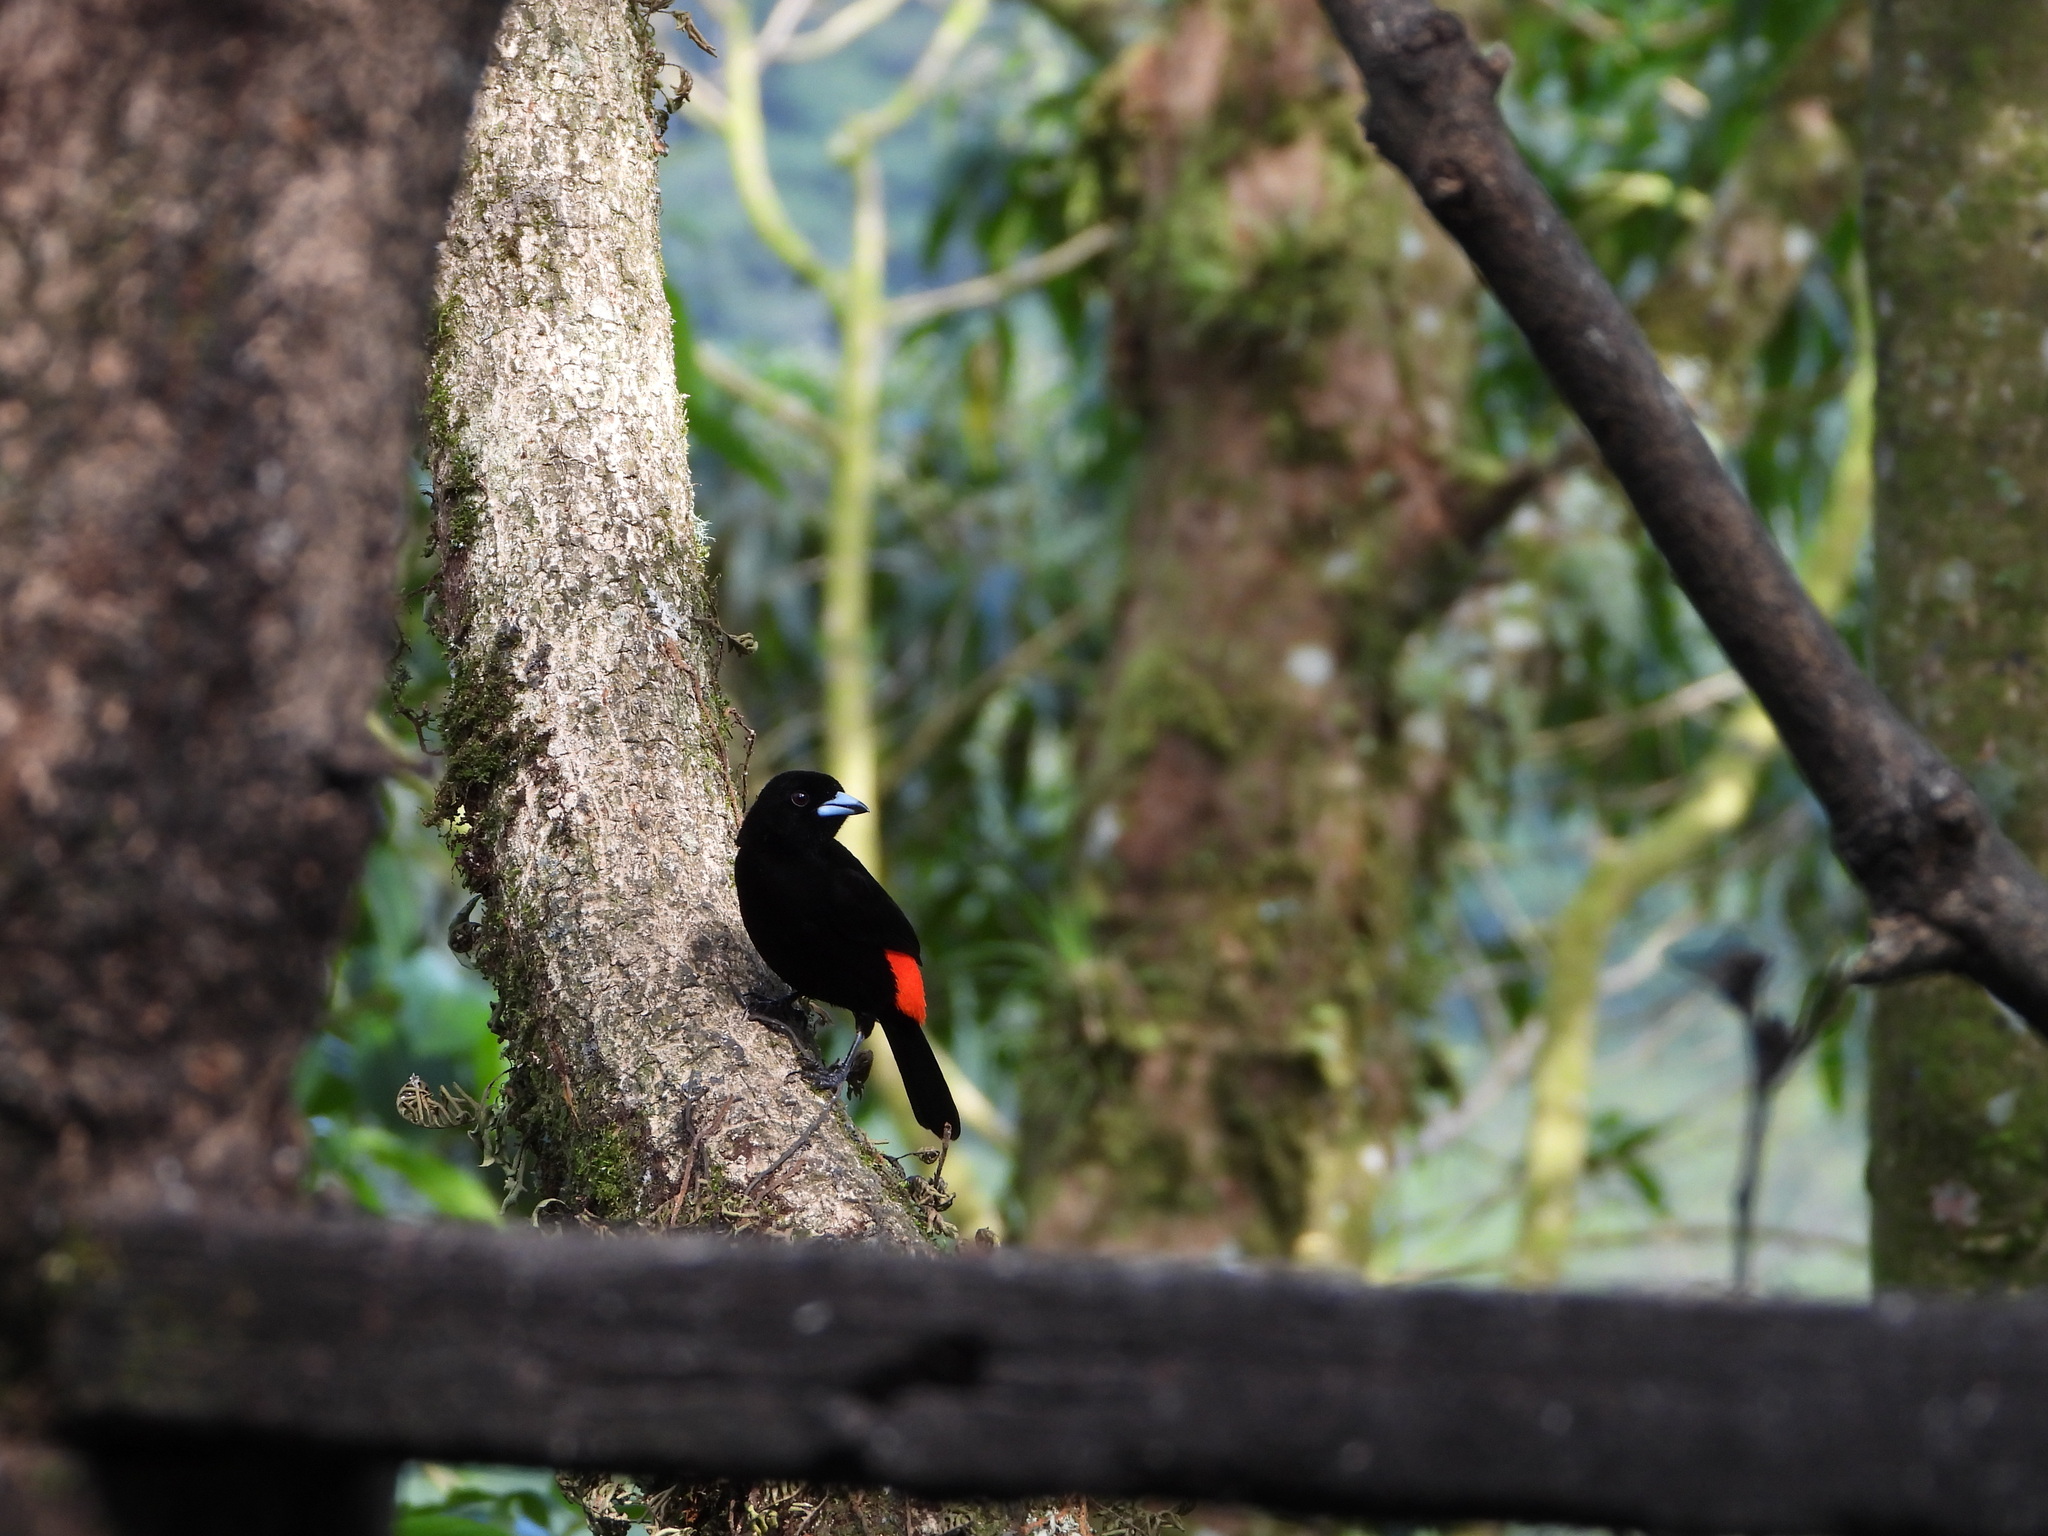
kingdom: Animalia
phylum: Chordata
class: Aves
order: Passeriformes
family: Thraupidae
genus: Ramphocelus
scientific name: Ramphocelus passerinii
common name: Passerini's tanager
